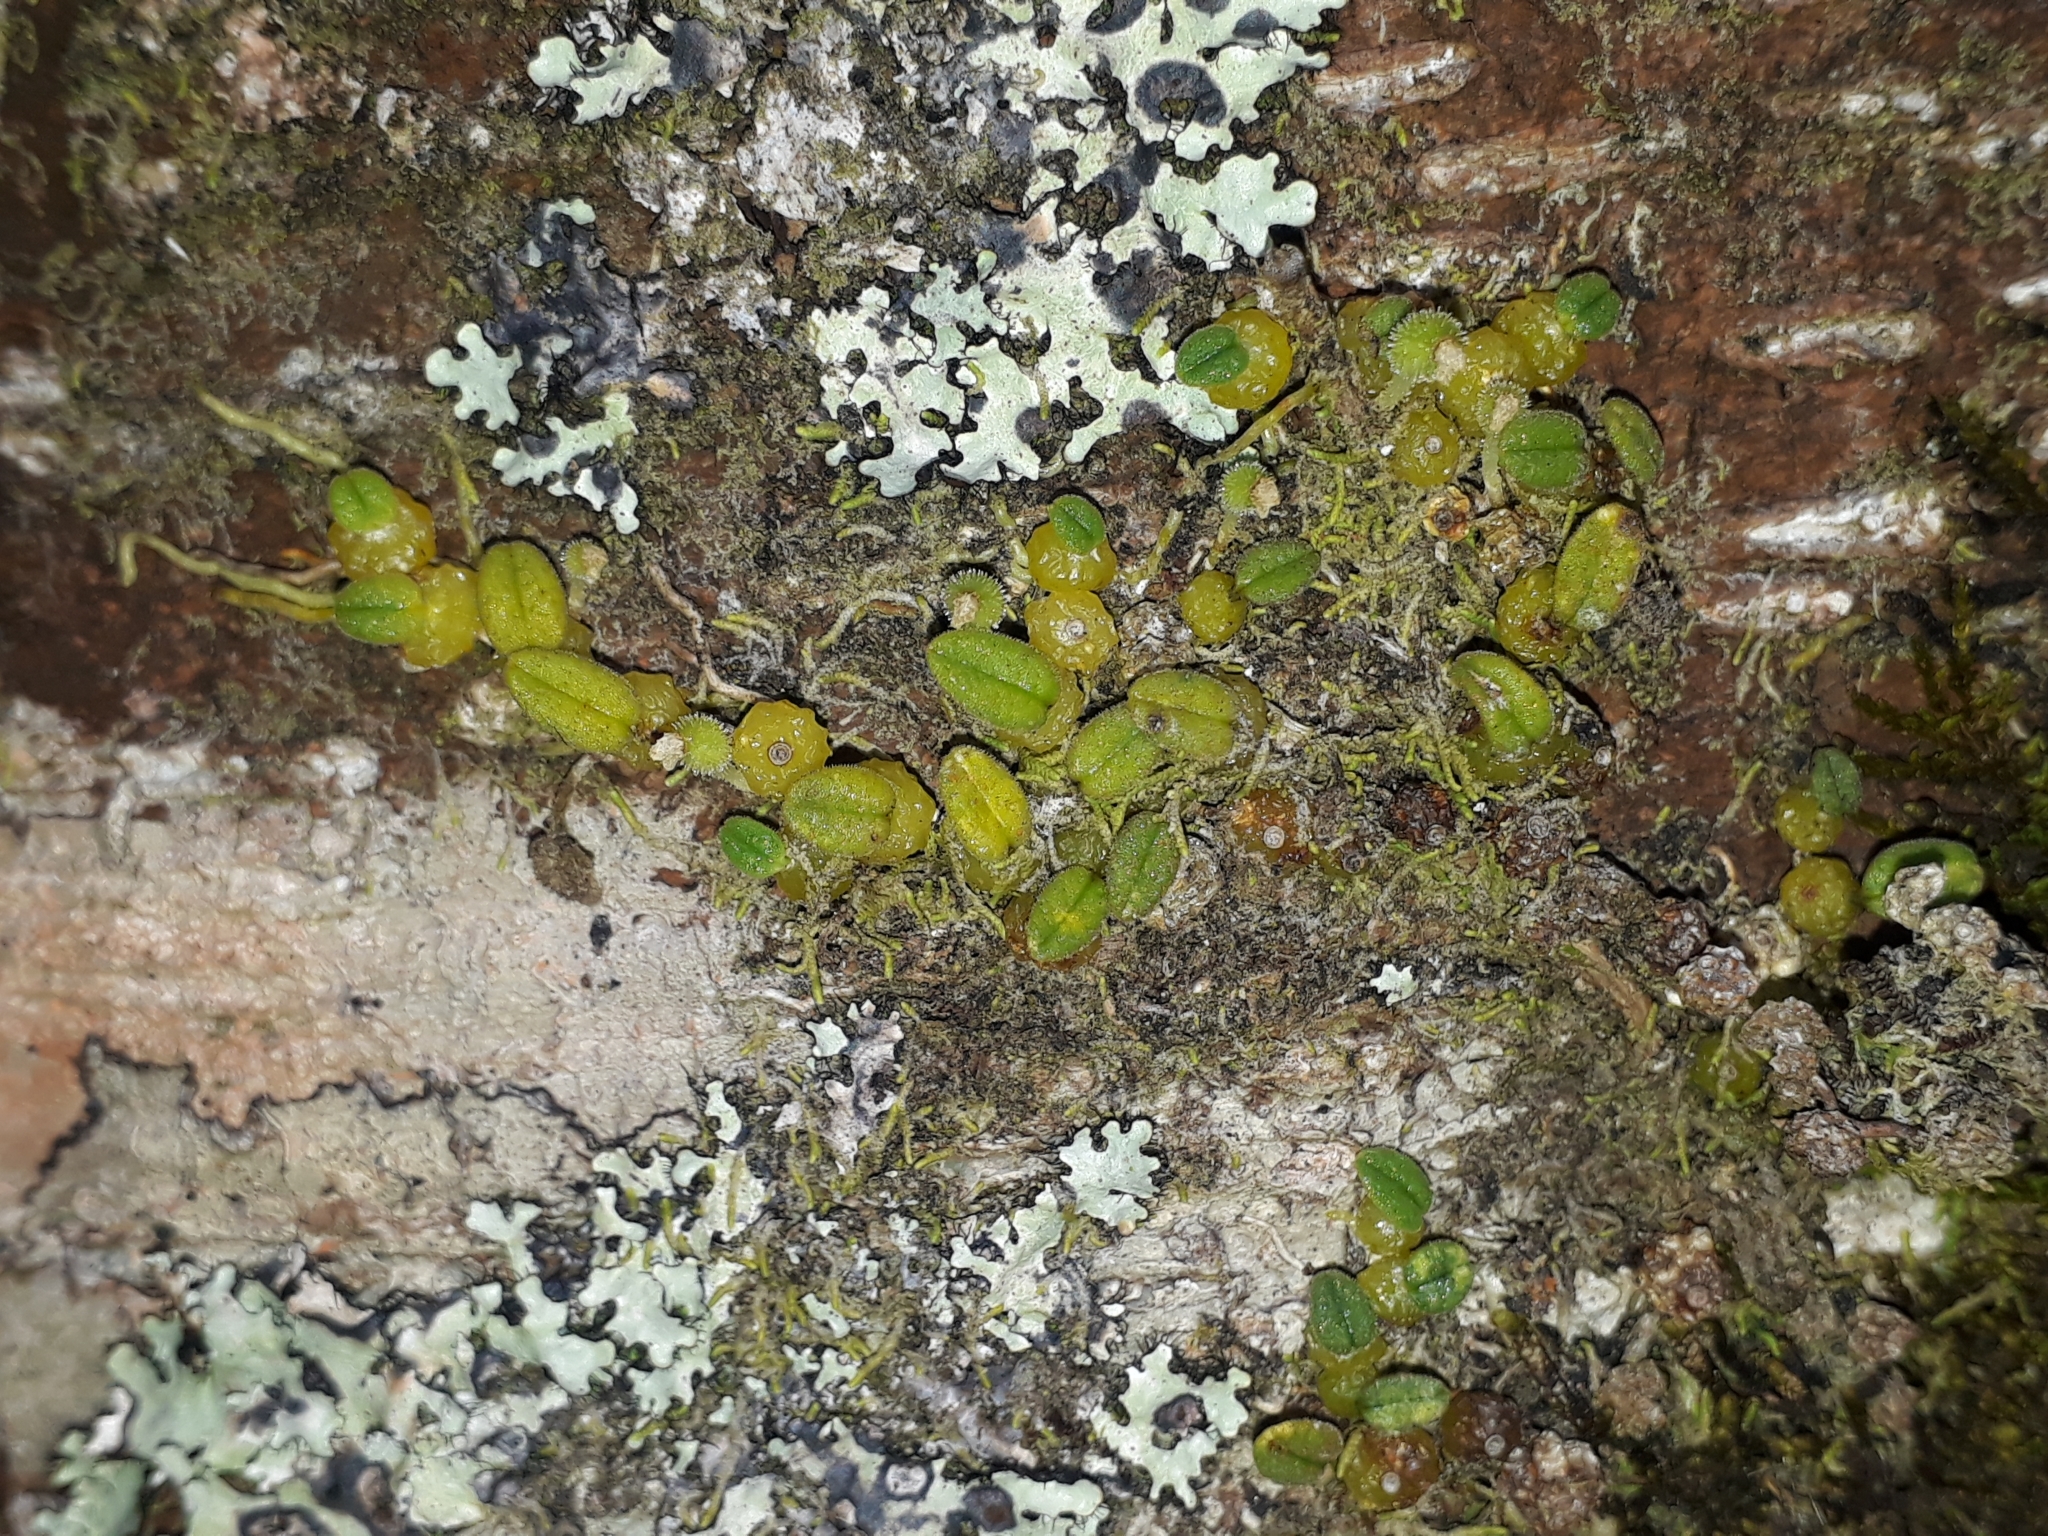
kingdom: Plantae
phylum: Tracheophyta
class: Liliopsida
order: Asparagales
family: Orchidaceae
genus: Bulbophyllum
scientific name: Bulbophyllum pygmaeum
